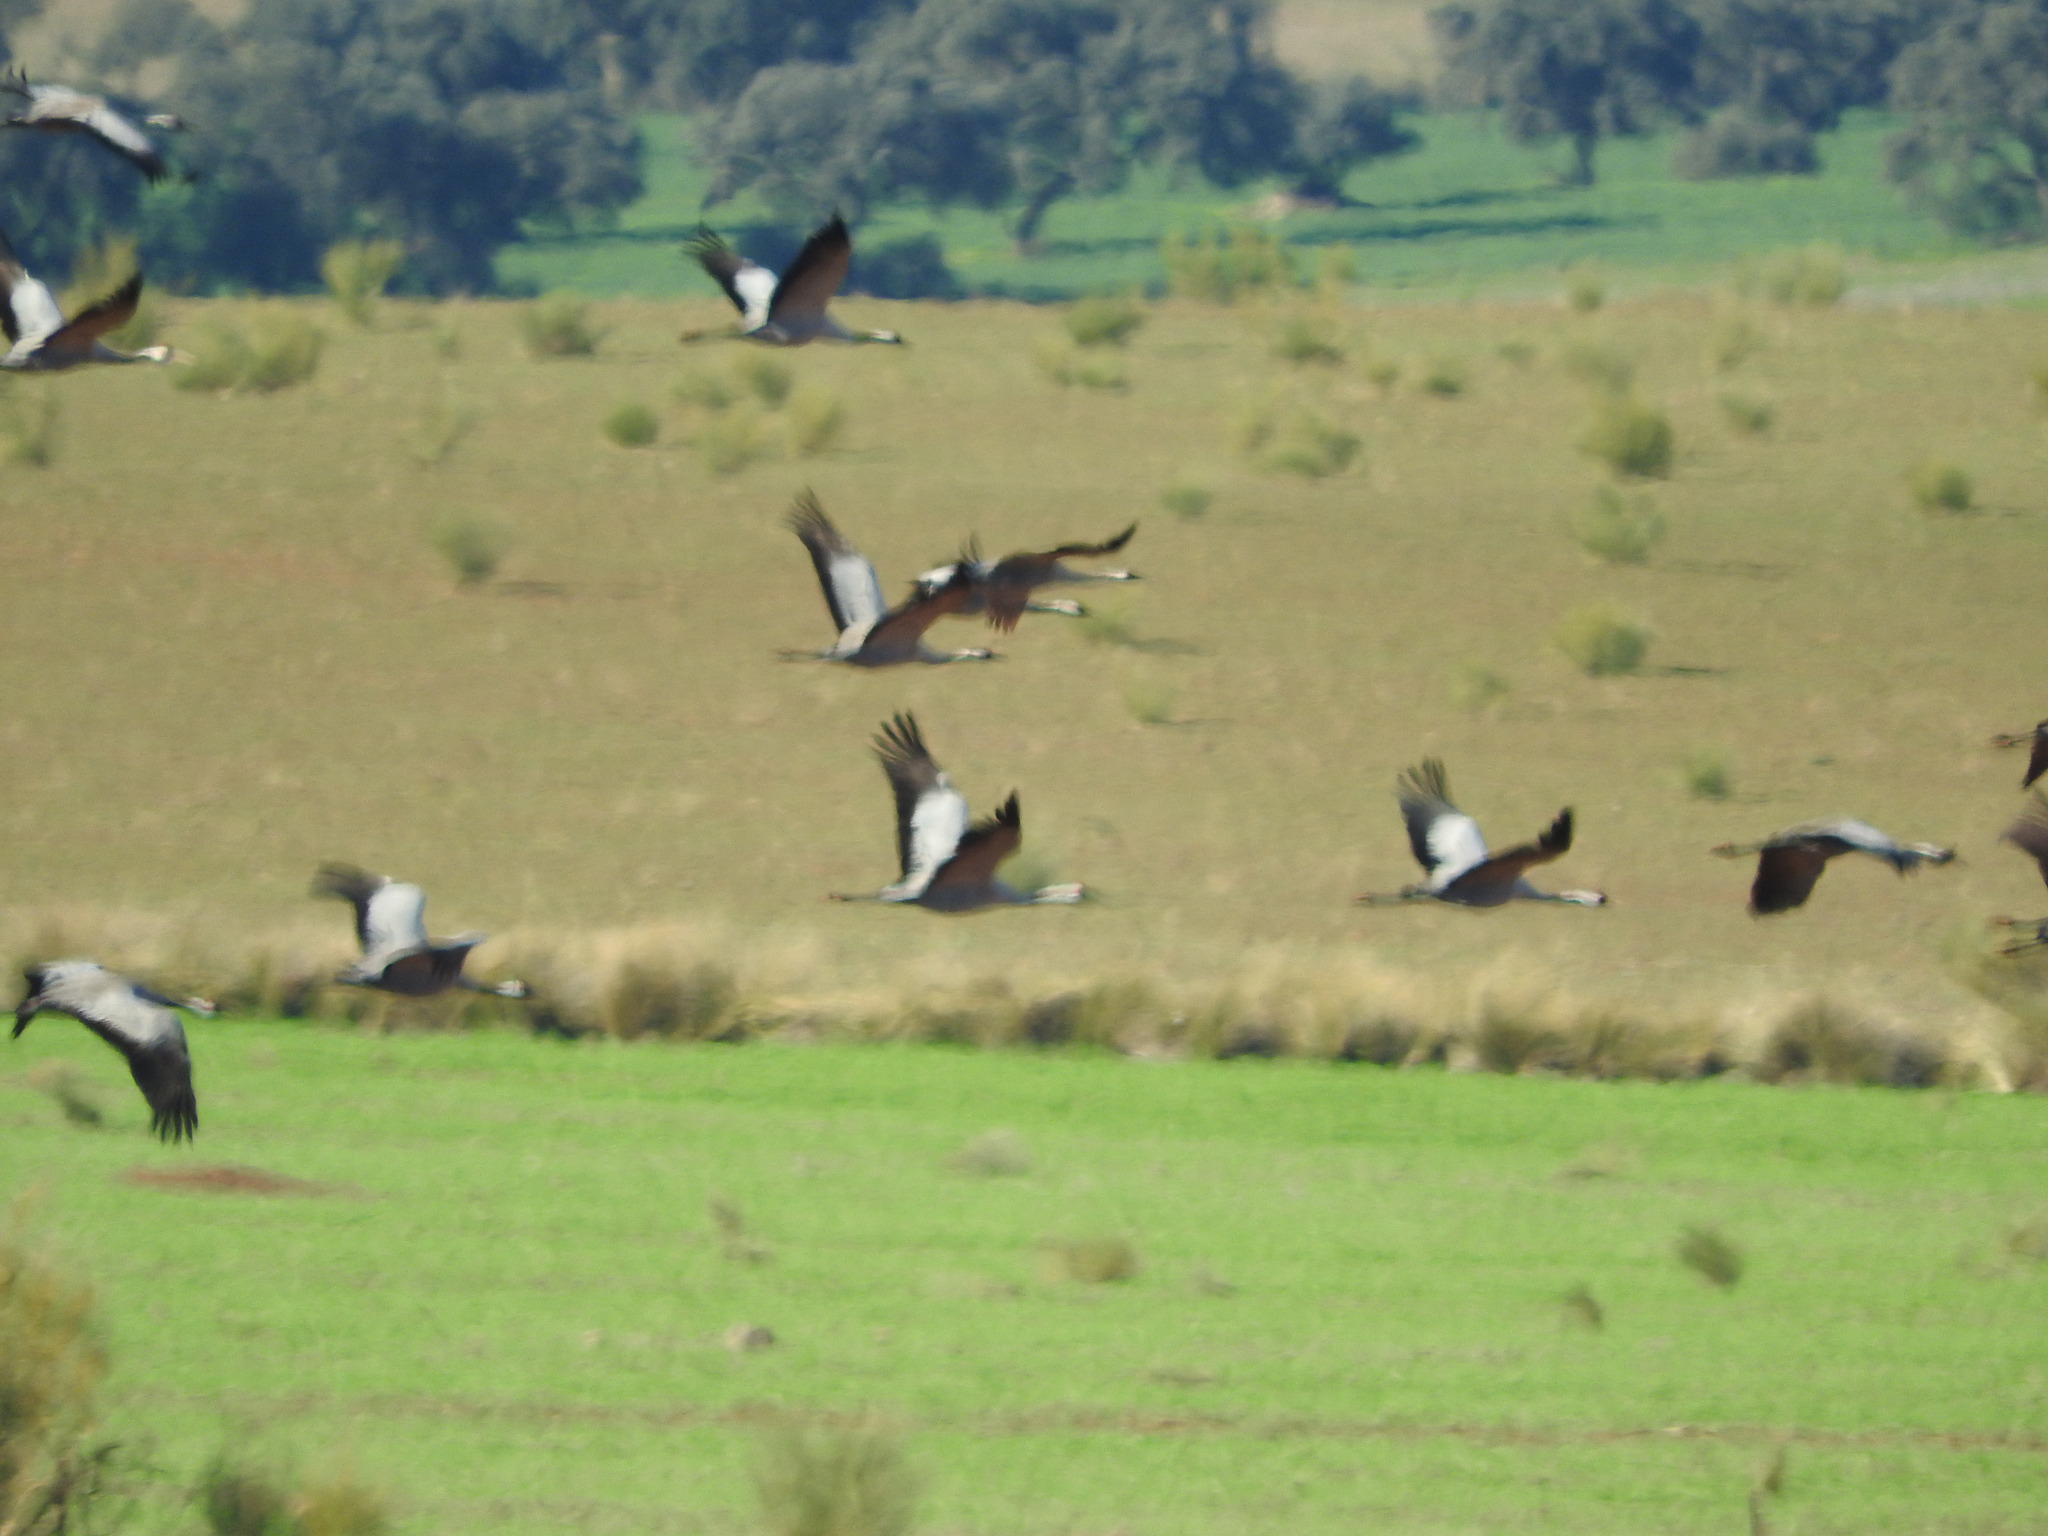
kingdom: Animalia
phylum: Chordata
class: Aves
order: Gruiformes
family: Gruidae
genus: Grus
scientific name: Grus grus
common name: Common crane
